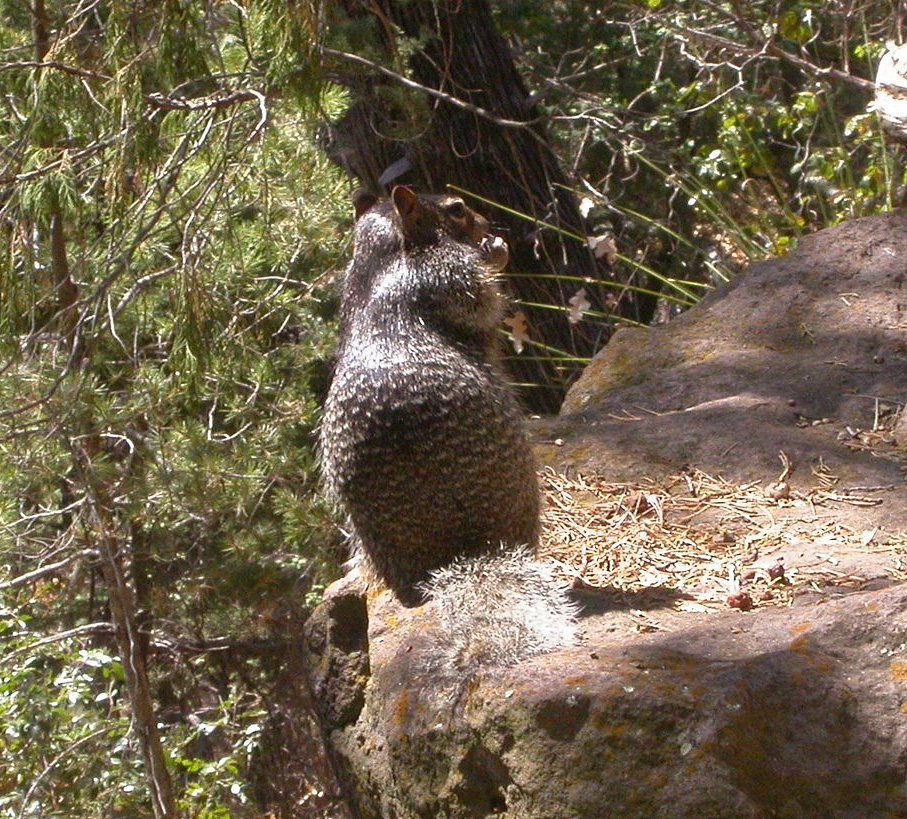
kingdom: Animalia
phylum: Chordata
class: Mammalia
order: Rodentia
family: Sciuridae
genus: Otospermophilus
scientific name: Otospermophilus variegatus
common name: Rock squirrel
